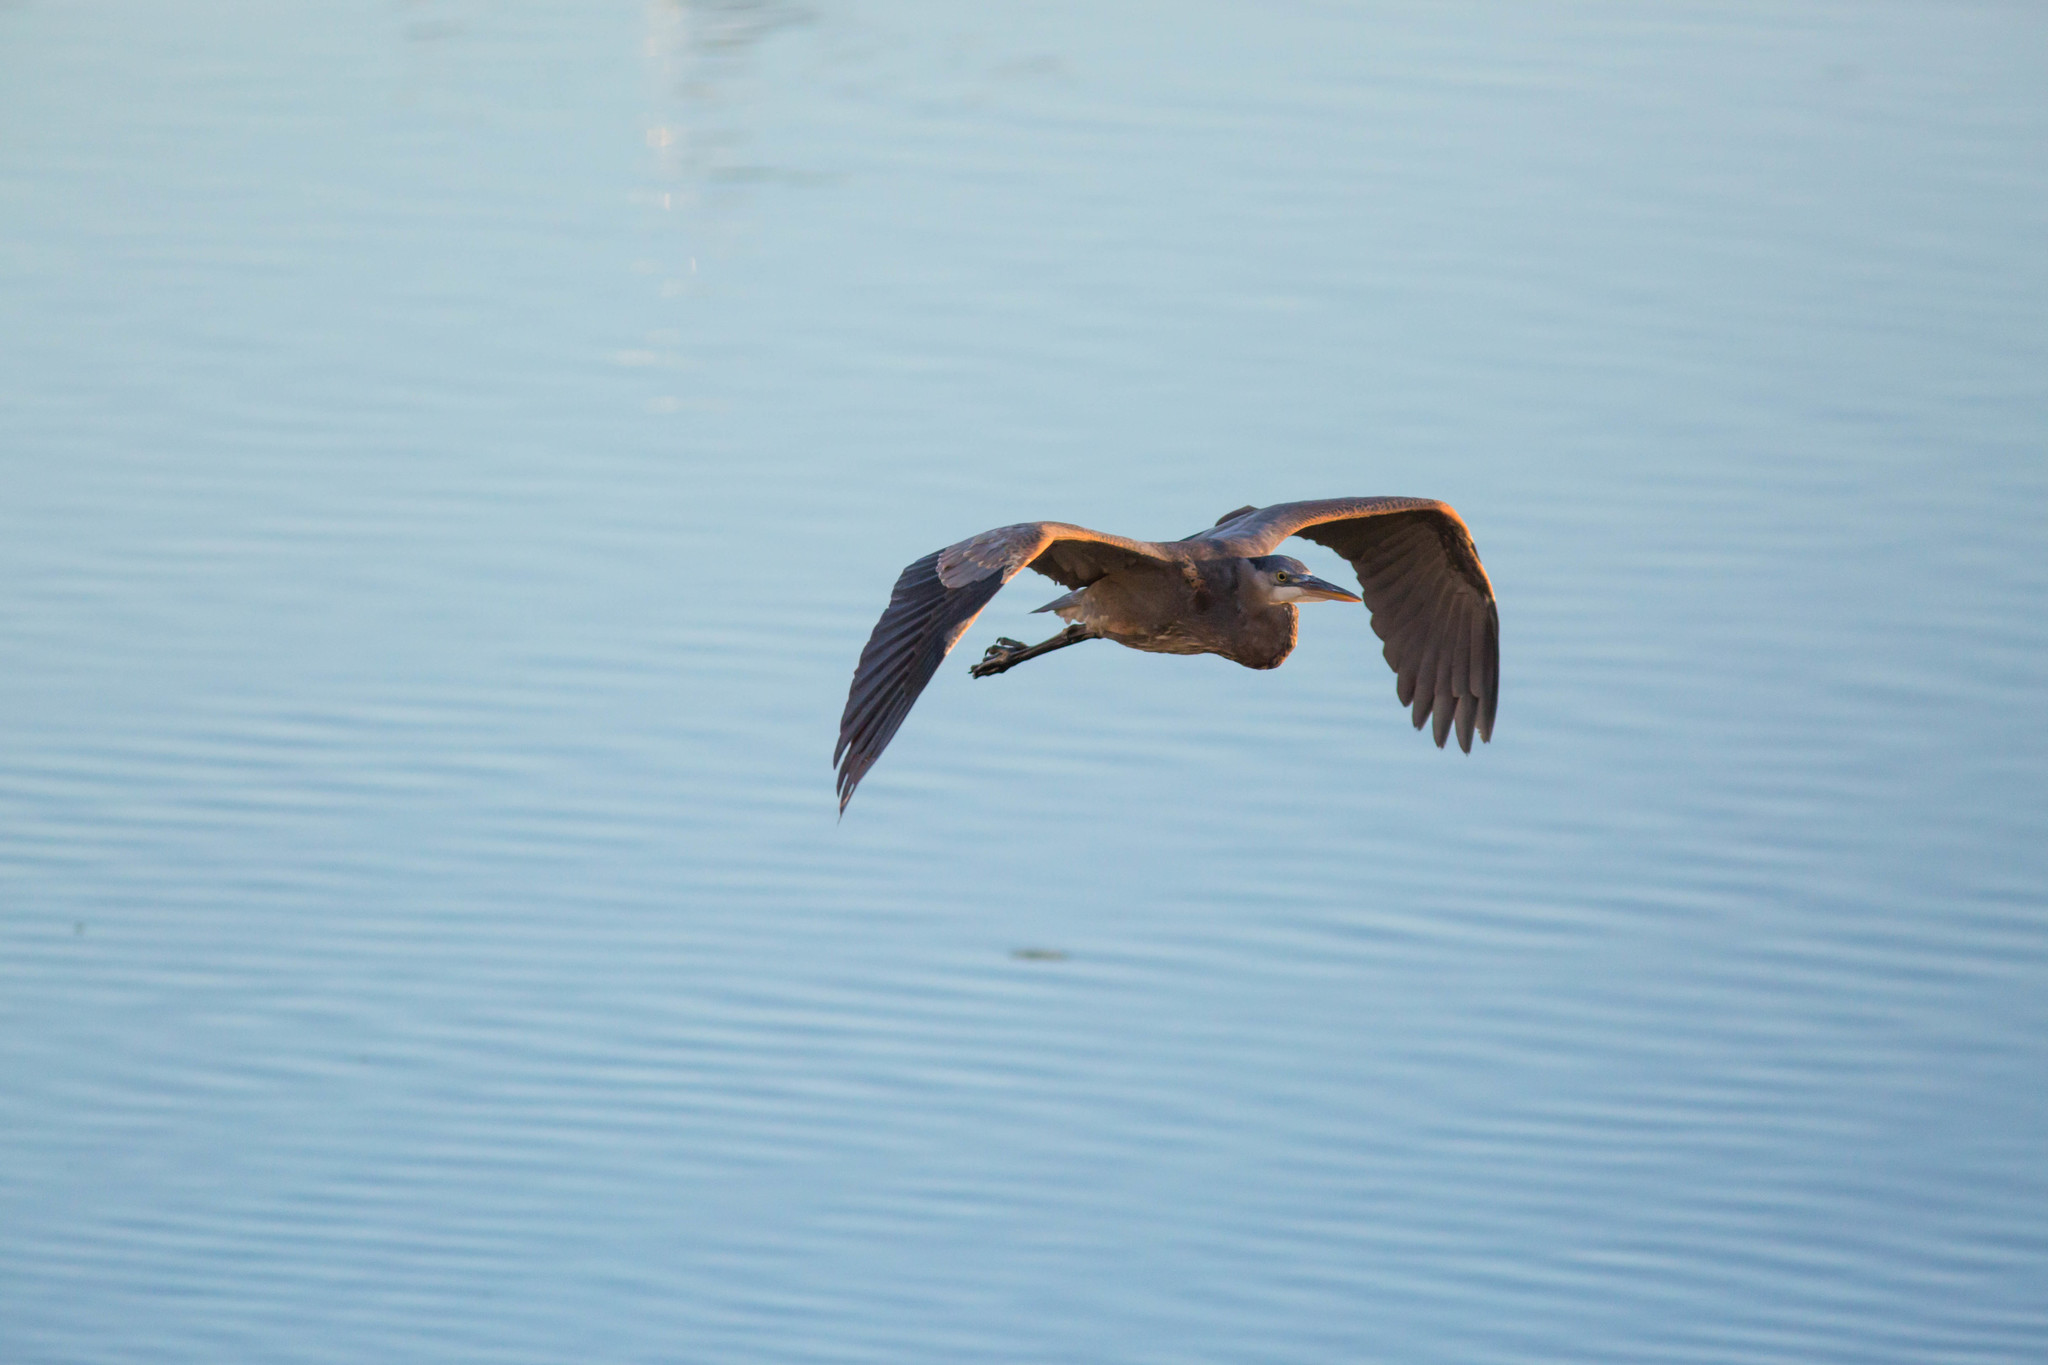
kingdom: Animalia
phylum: Chordata
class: Aves
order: Pelecaniformes
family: Ardeidae
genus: Ardea
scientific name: Ardea herodias
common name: Great blue heron
